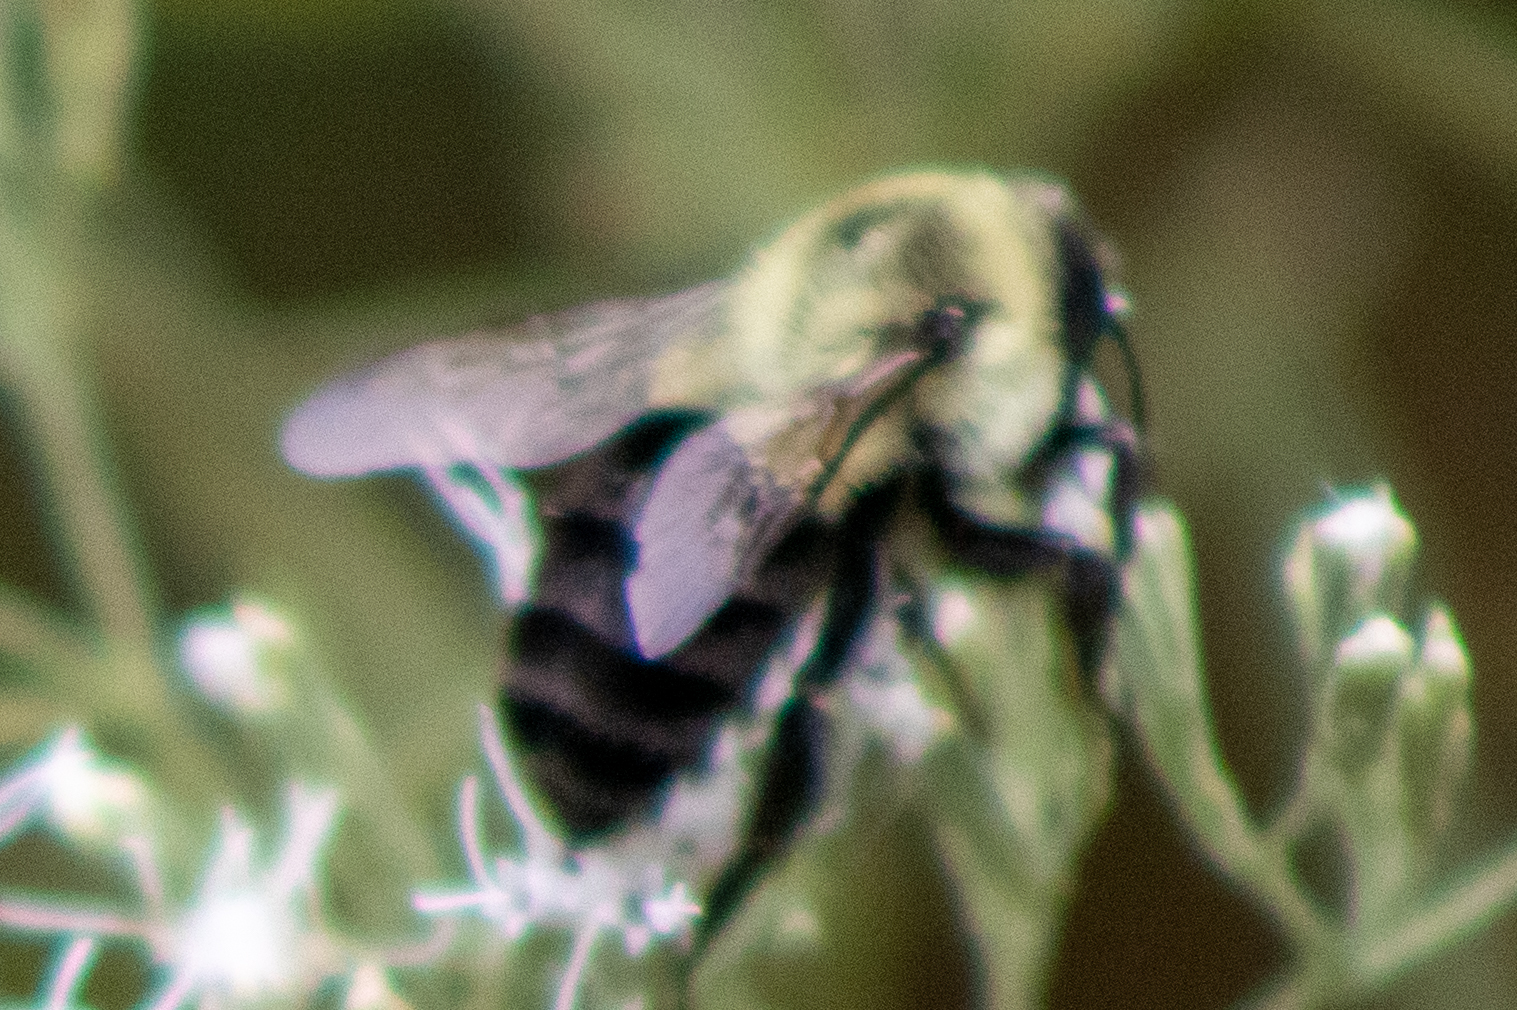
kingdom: Animalia
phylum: Arthropoda
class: Insecta
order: Hymenoptera
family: Apidae
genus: Bombus
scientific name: Bombus impatiens
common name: Common eastern bumble bee
